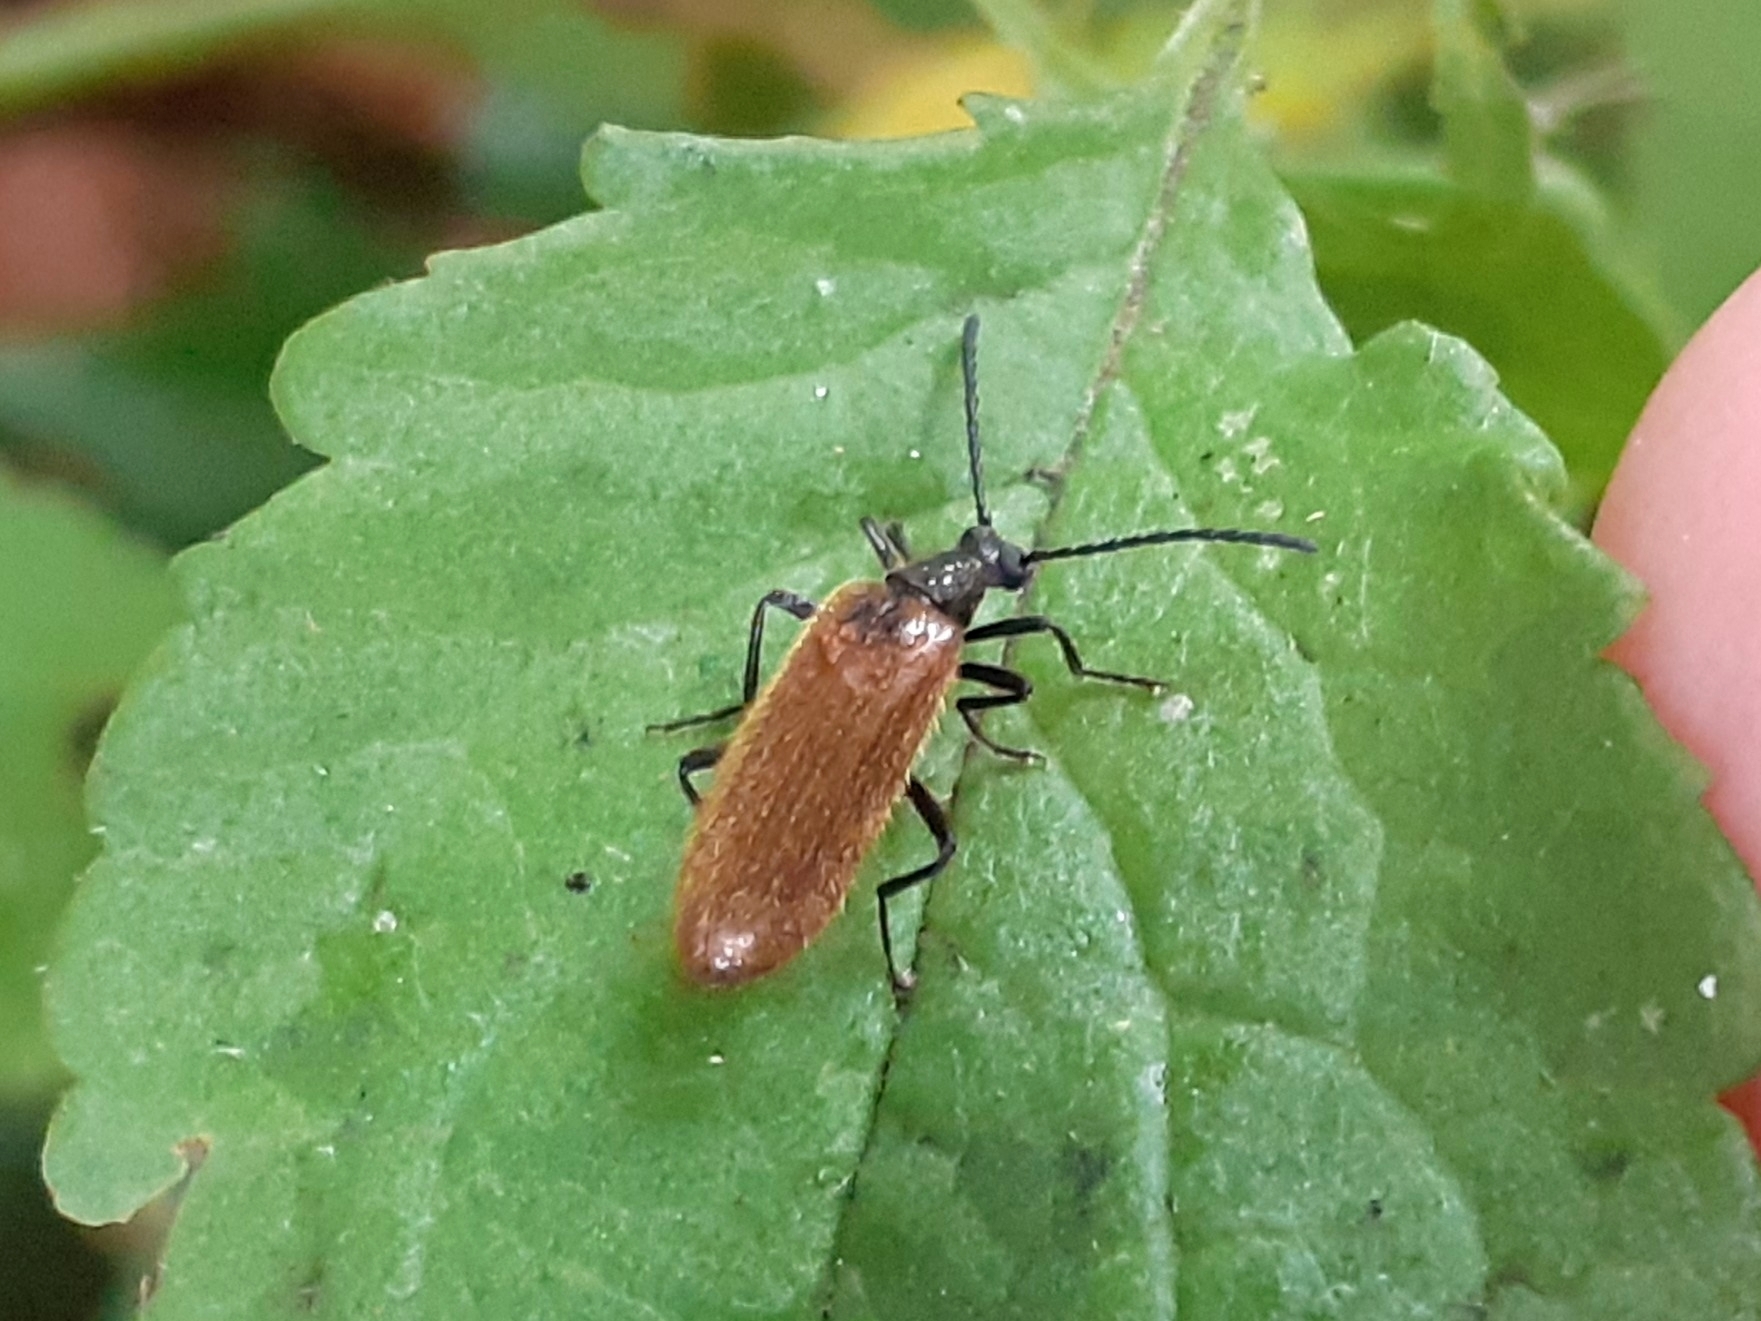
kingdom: Animalia
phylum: Arthropoda
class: Insecta
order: Coleoptera
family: Tenebrionidae
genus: Lagria
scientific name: Lagria hirta
